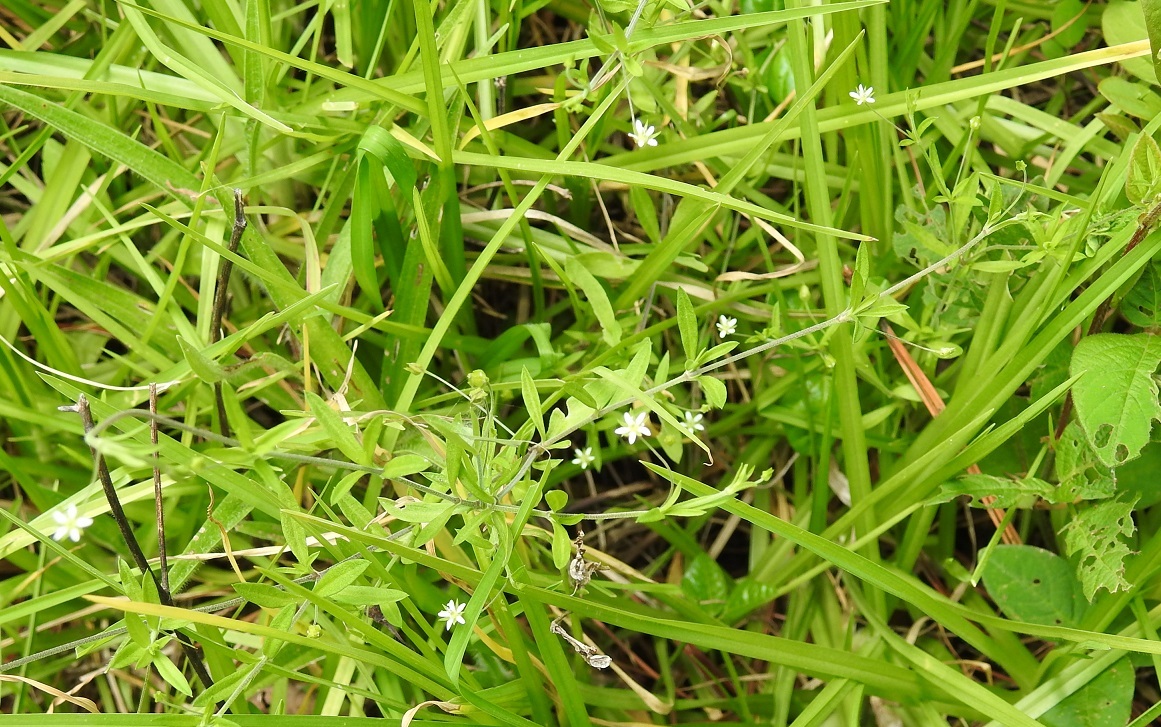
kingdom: Plantae
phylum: Tracheophyta
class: Magnoliopsida
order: Caryophyllales
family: Caryophyllaceae
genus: Arenaria
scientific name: Arenaria lanuginosa
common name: Spread sandwort
